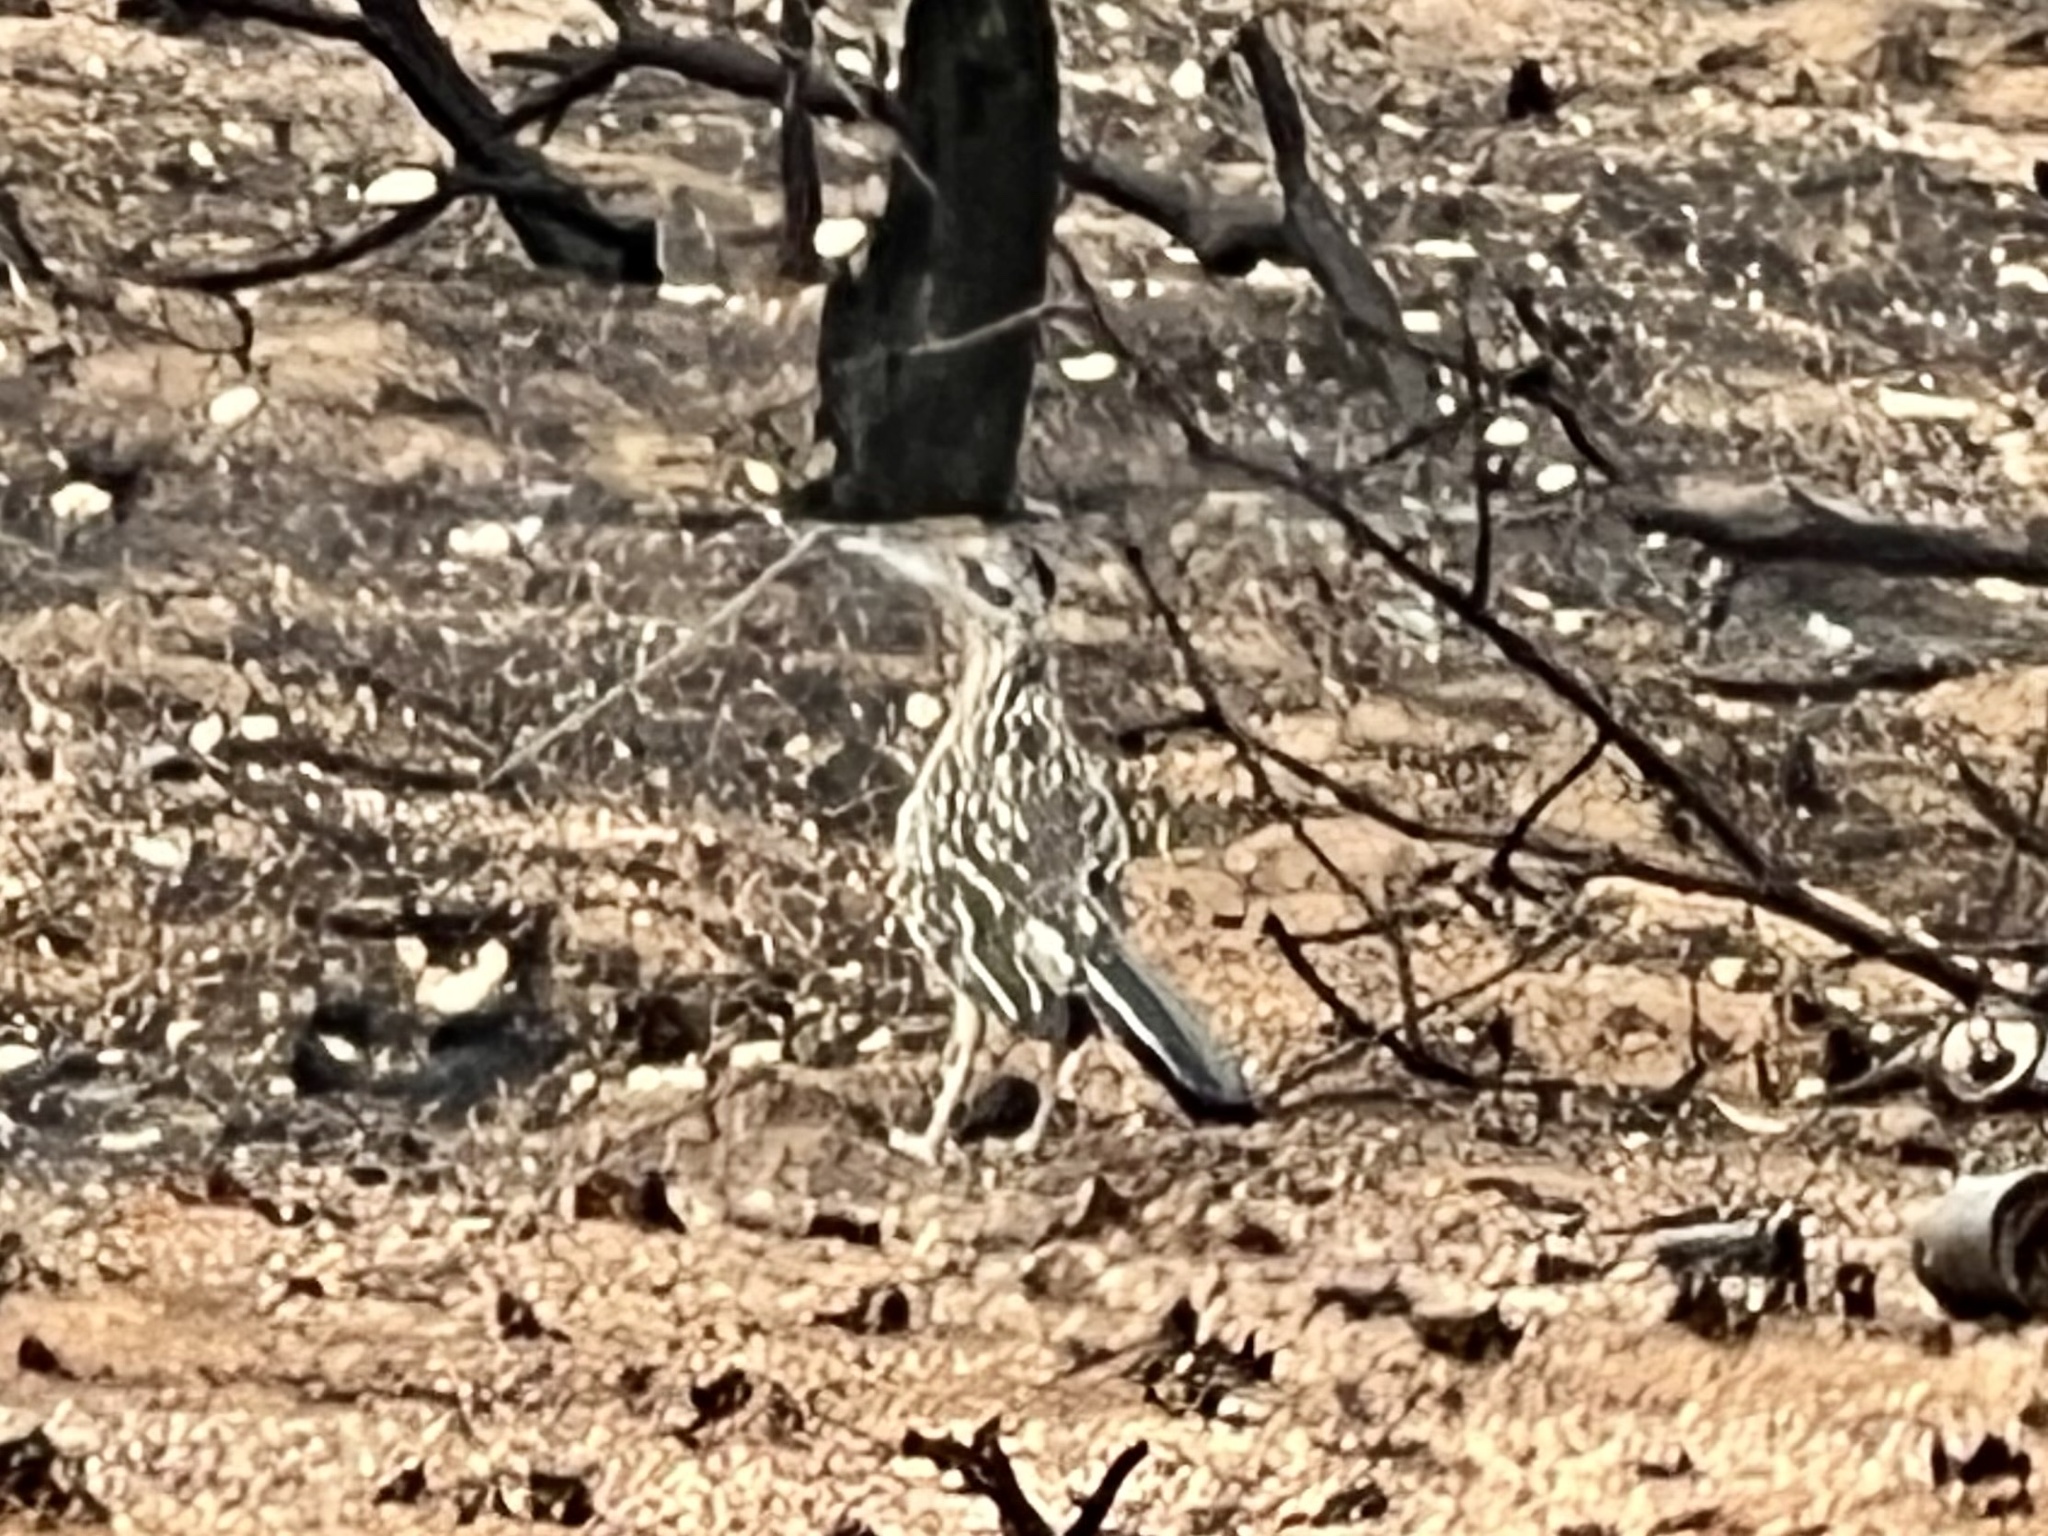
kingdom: Animalia
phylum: Chordata
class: Aves
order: Cuculiformes
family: Cuculidae
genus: Geococcyx
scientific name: Geococcyx californianus
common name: Greater roadrunner
